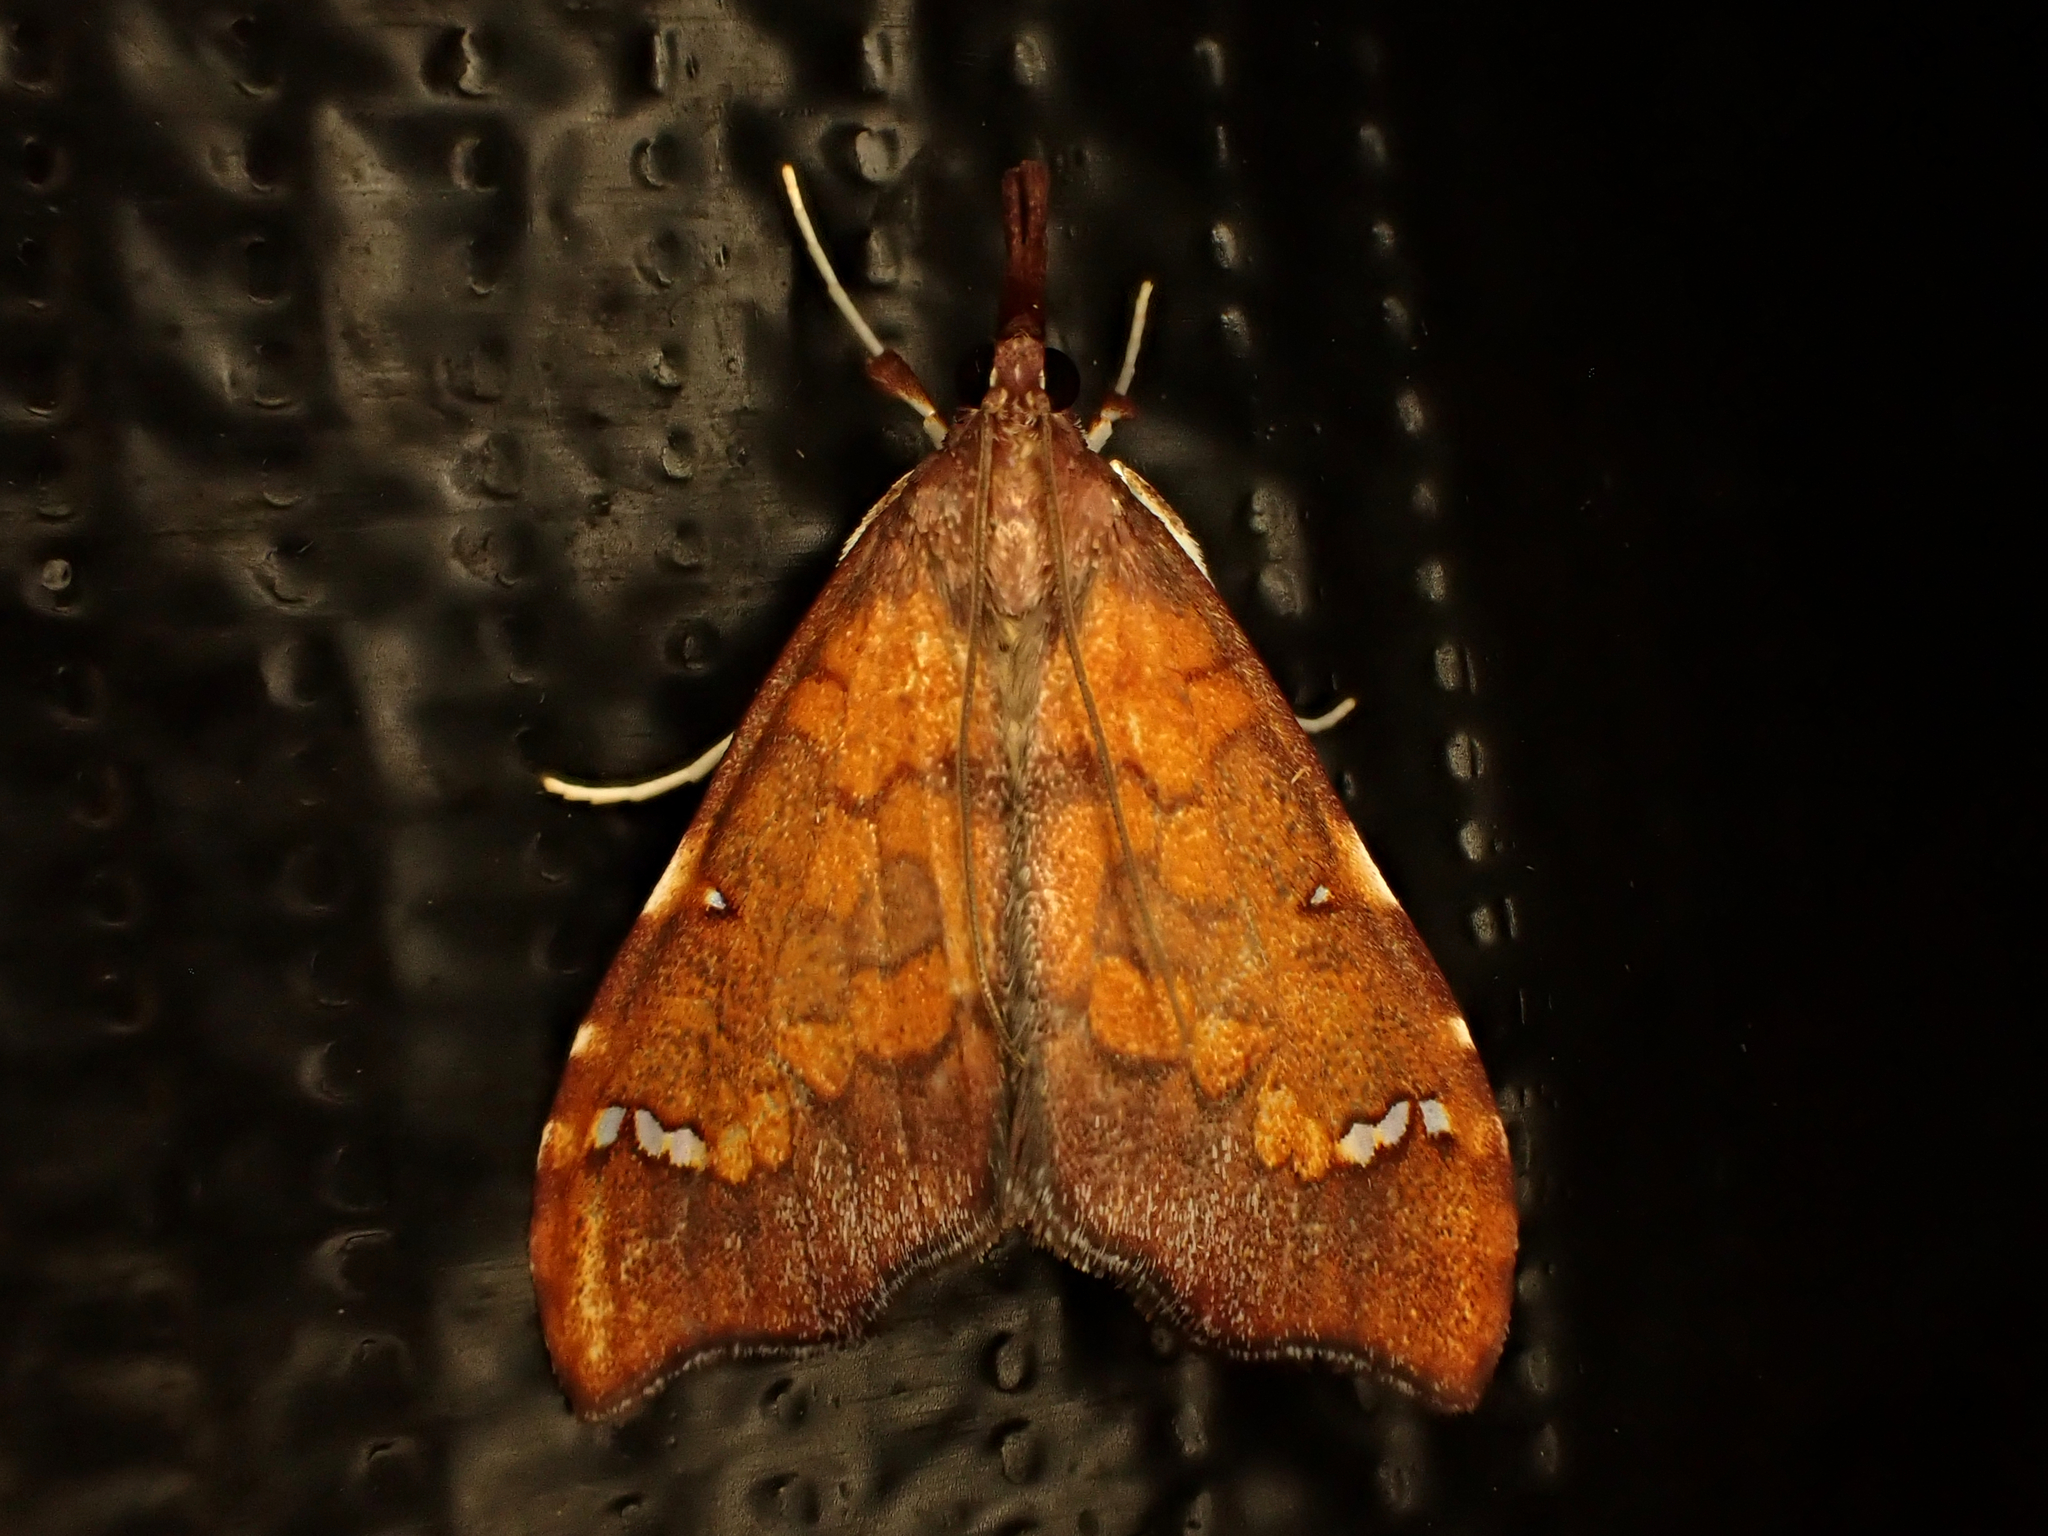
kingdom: Animalia
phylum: Arthropoda
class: Insecta
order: Lepidoptera
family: Crambidae
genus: Deana
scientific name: Deana hybreasalis
